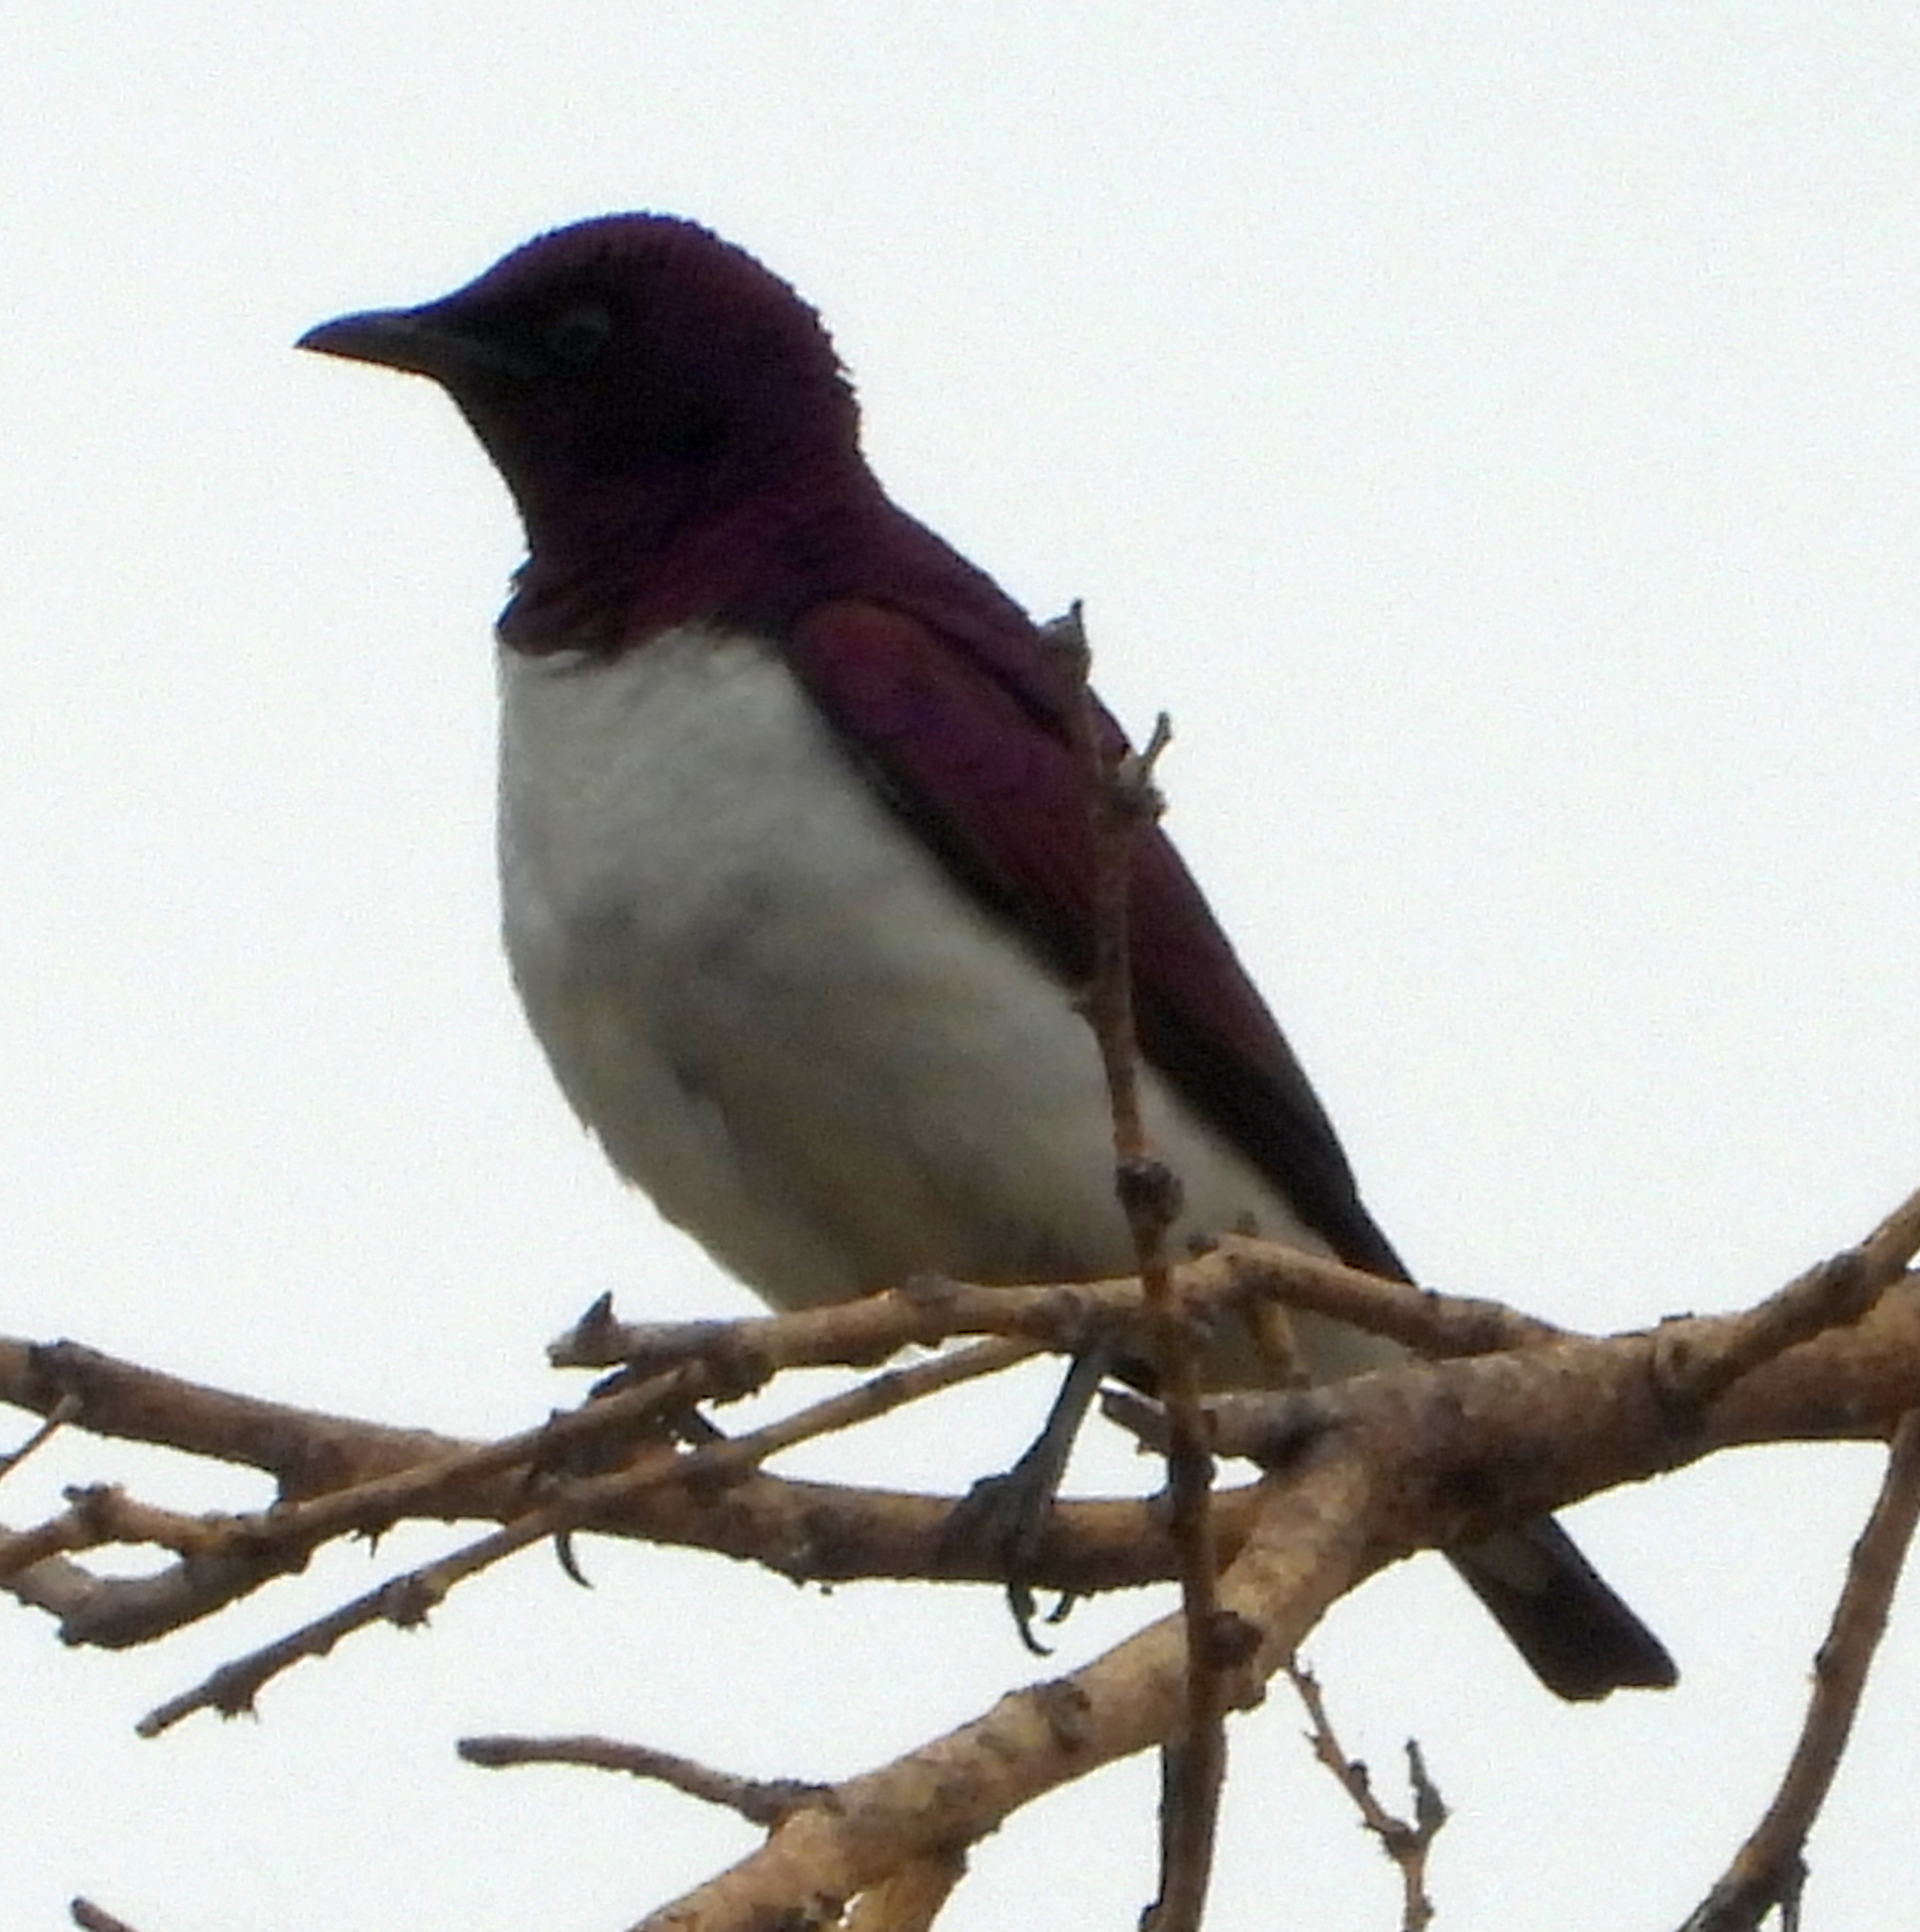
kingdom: Animalia
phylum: Chordata
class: Aves
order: Passeriformes
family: Sturnidae
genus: Cinnyricinclus
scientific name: Cinnyricinclus leucogaster
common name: Violet-backed starling
